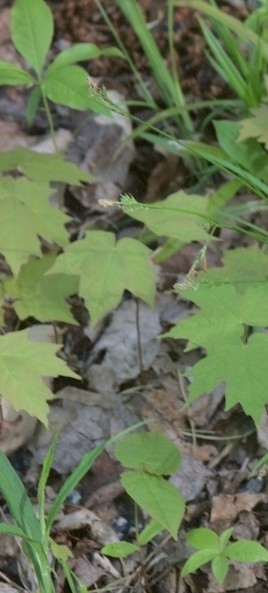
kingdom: Plantae
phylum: Tracheophyta
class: Magnoliopsida
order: Sapindales
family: Sapindaceae
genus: Acer
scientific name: Acer rubrum
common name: Red maple
